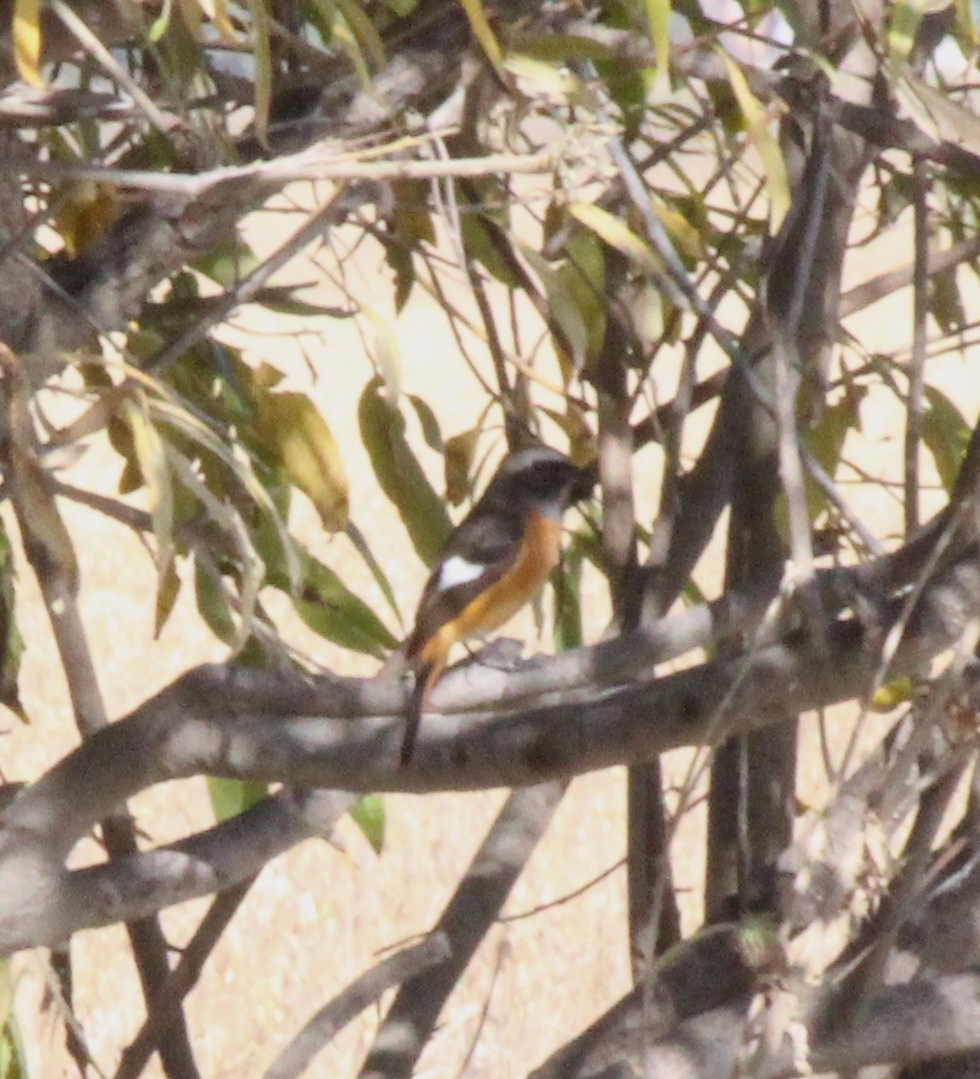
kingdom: Animalia
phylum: Chordata
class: Aves
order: Passeriformes
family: Muscicapidae
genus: Phoenicurus
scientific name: Phoenicurus auroreus
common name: Daurian redstart
